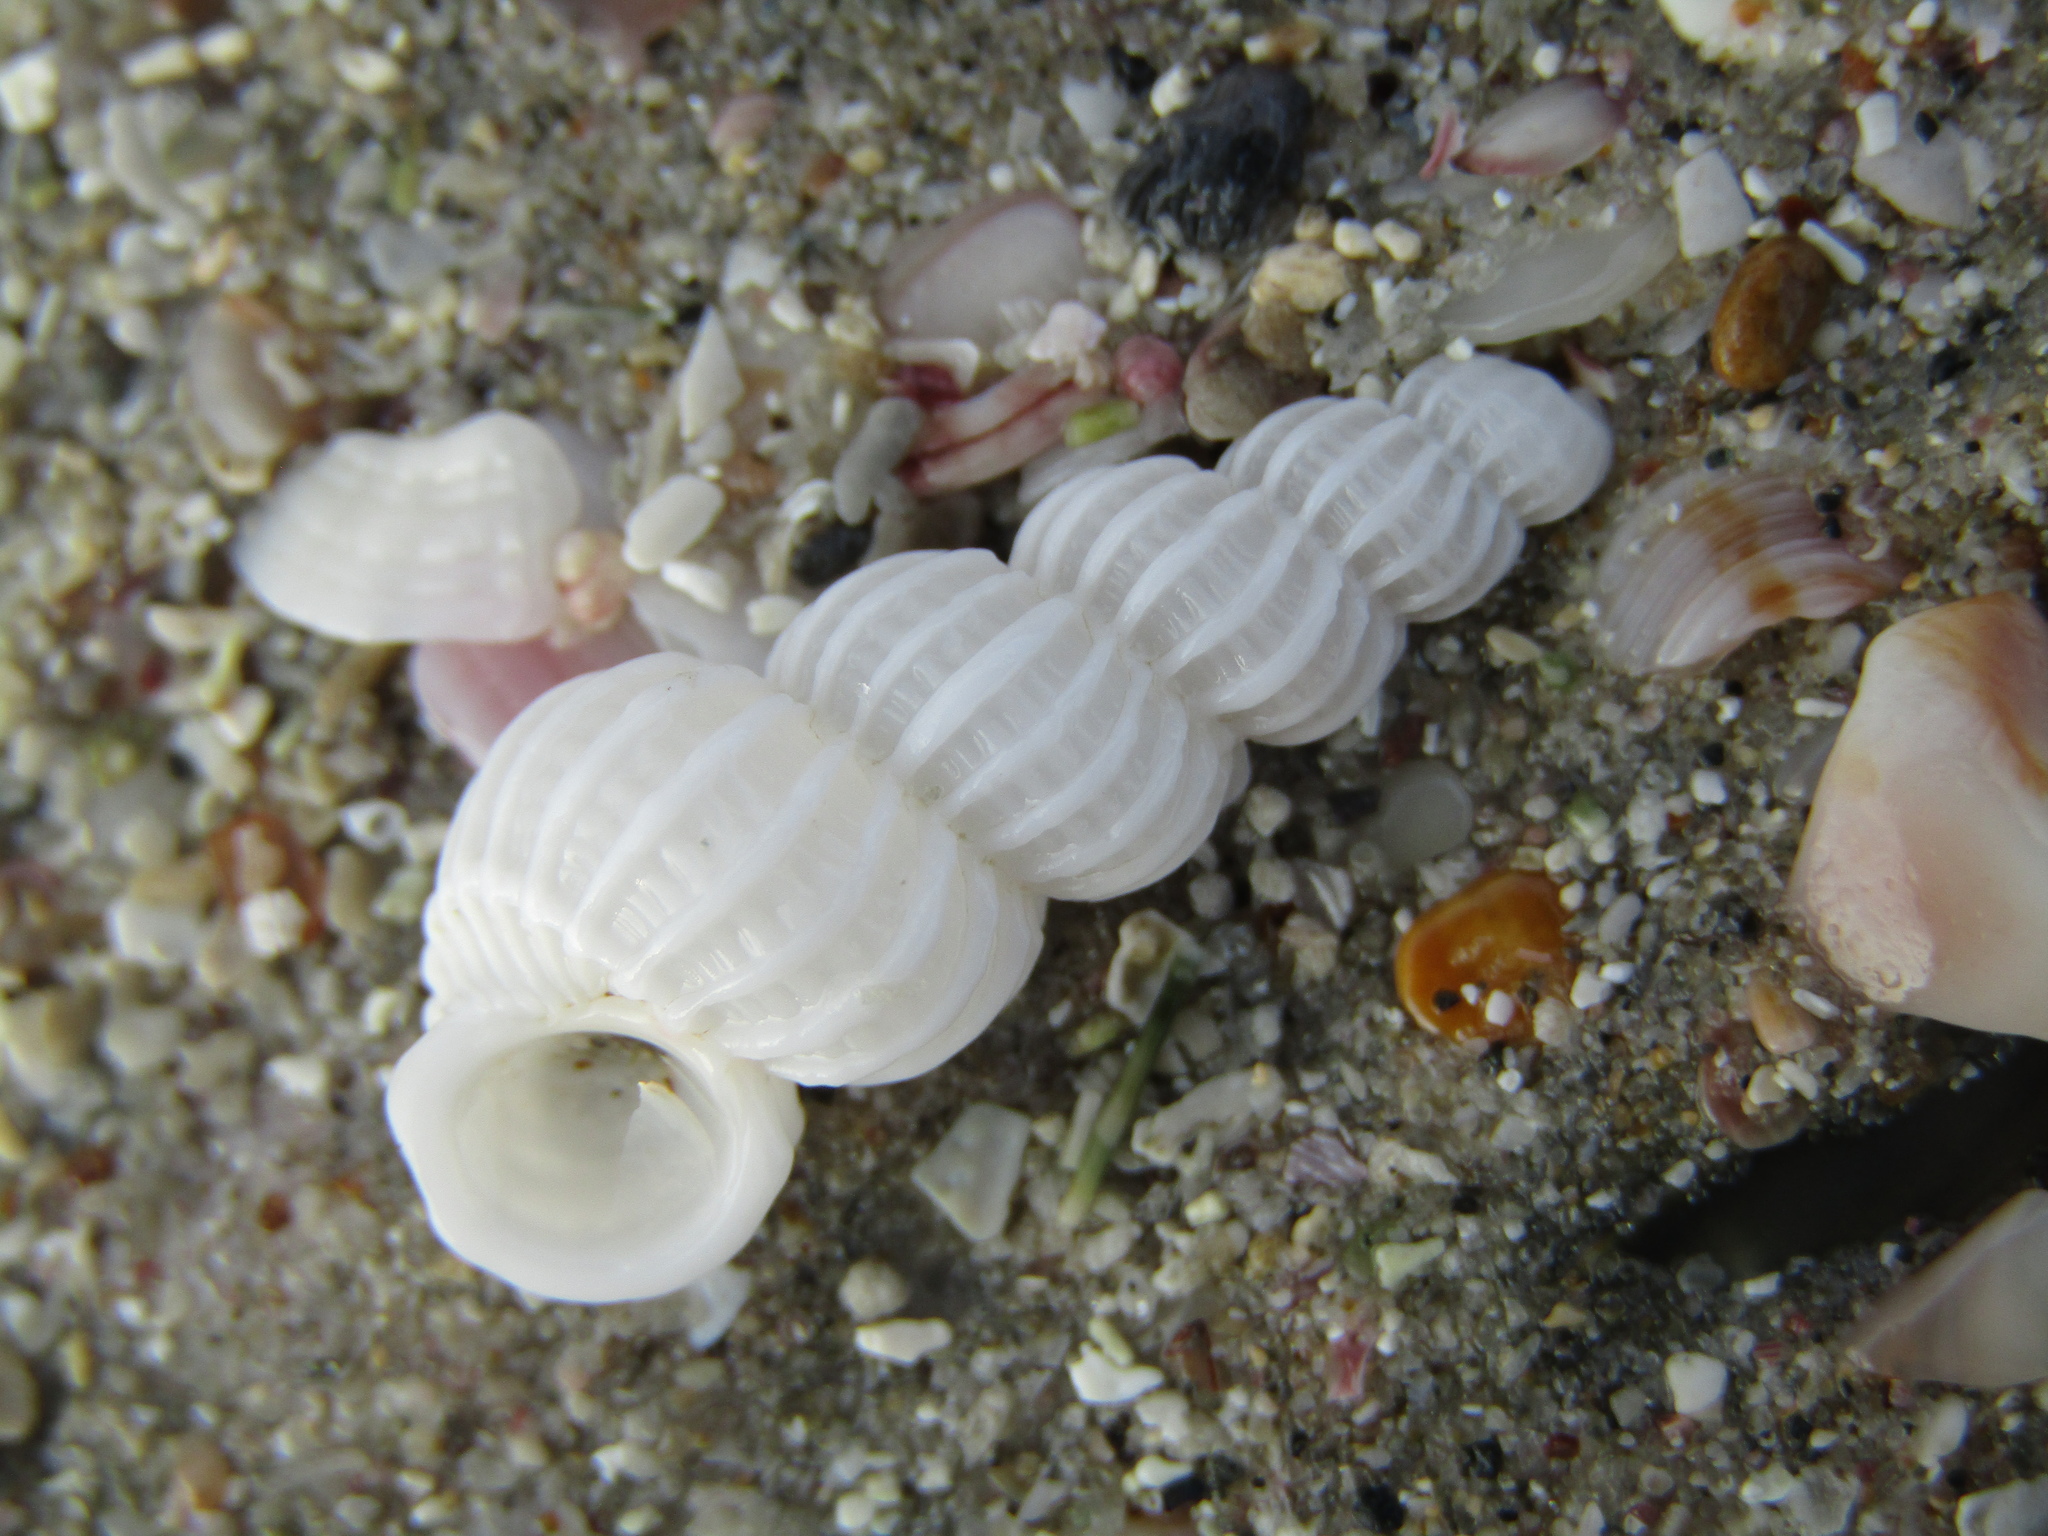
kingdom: Animalia
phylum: Mollusca
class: Gastropoda
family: Epitoniidae
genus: Cirsotrema
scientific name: Cirsotrema zelebori
